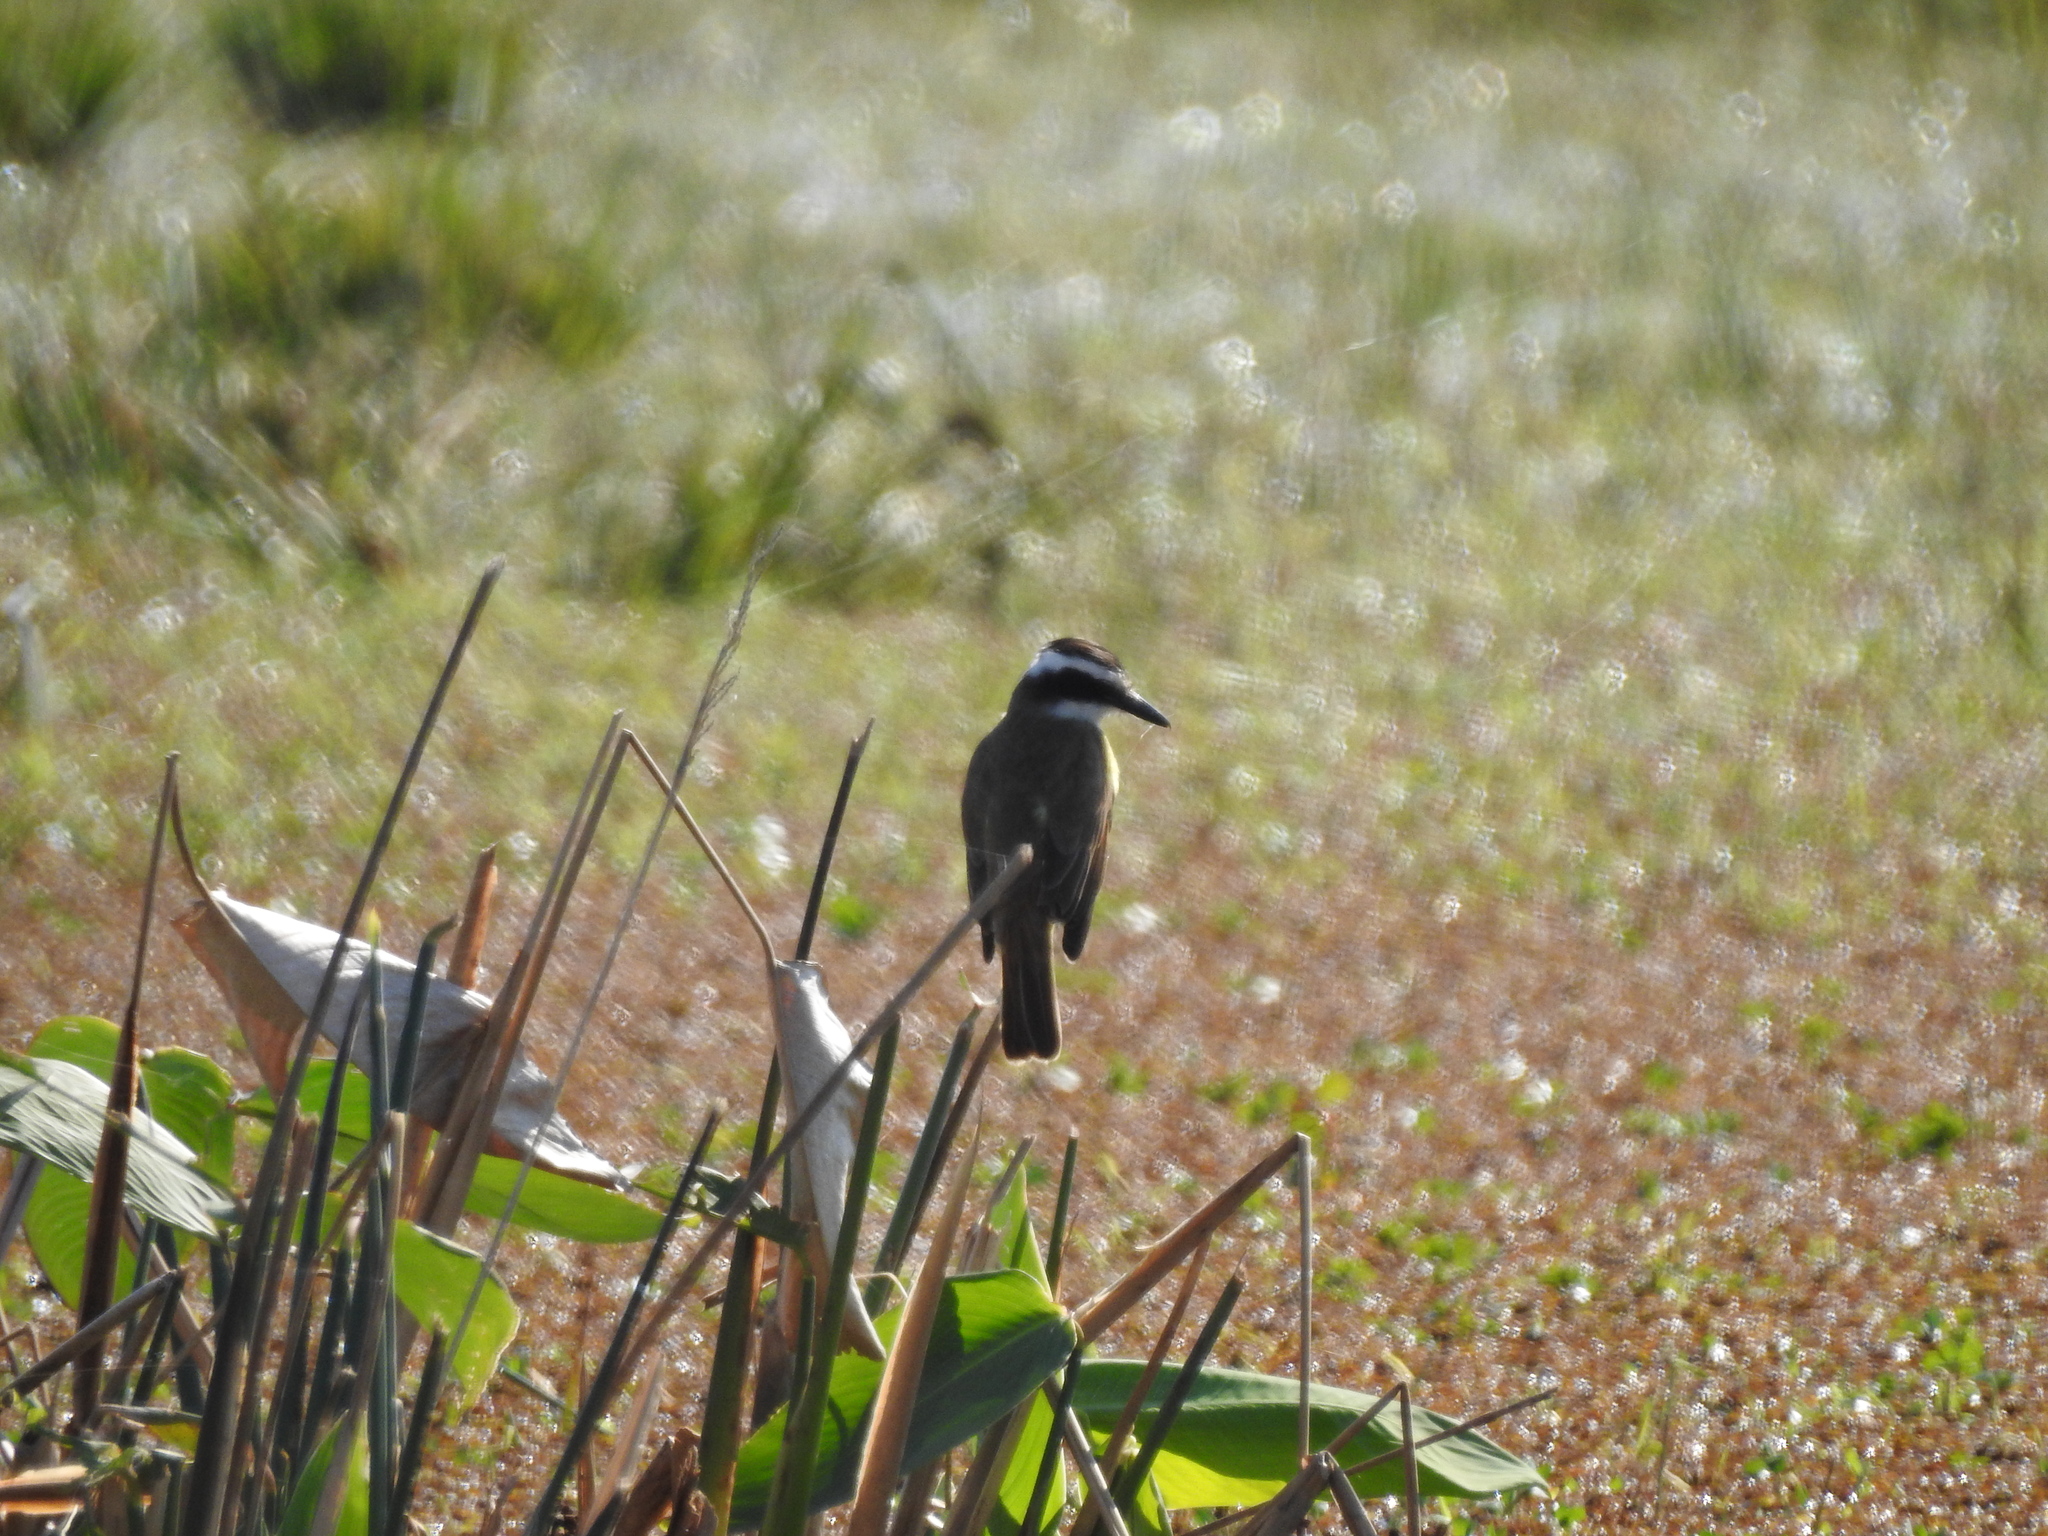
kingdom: Animalia
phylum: Chordata
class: Aves
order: Passeriformes
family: Tyrannidae
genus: Pitangus
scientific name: Pitangus sulphuratus
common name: Great kiskadee
